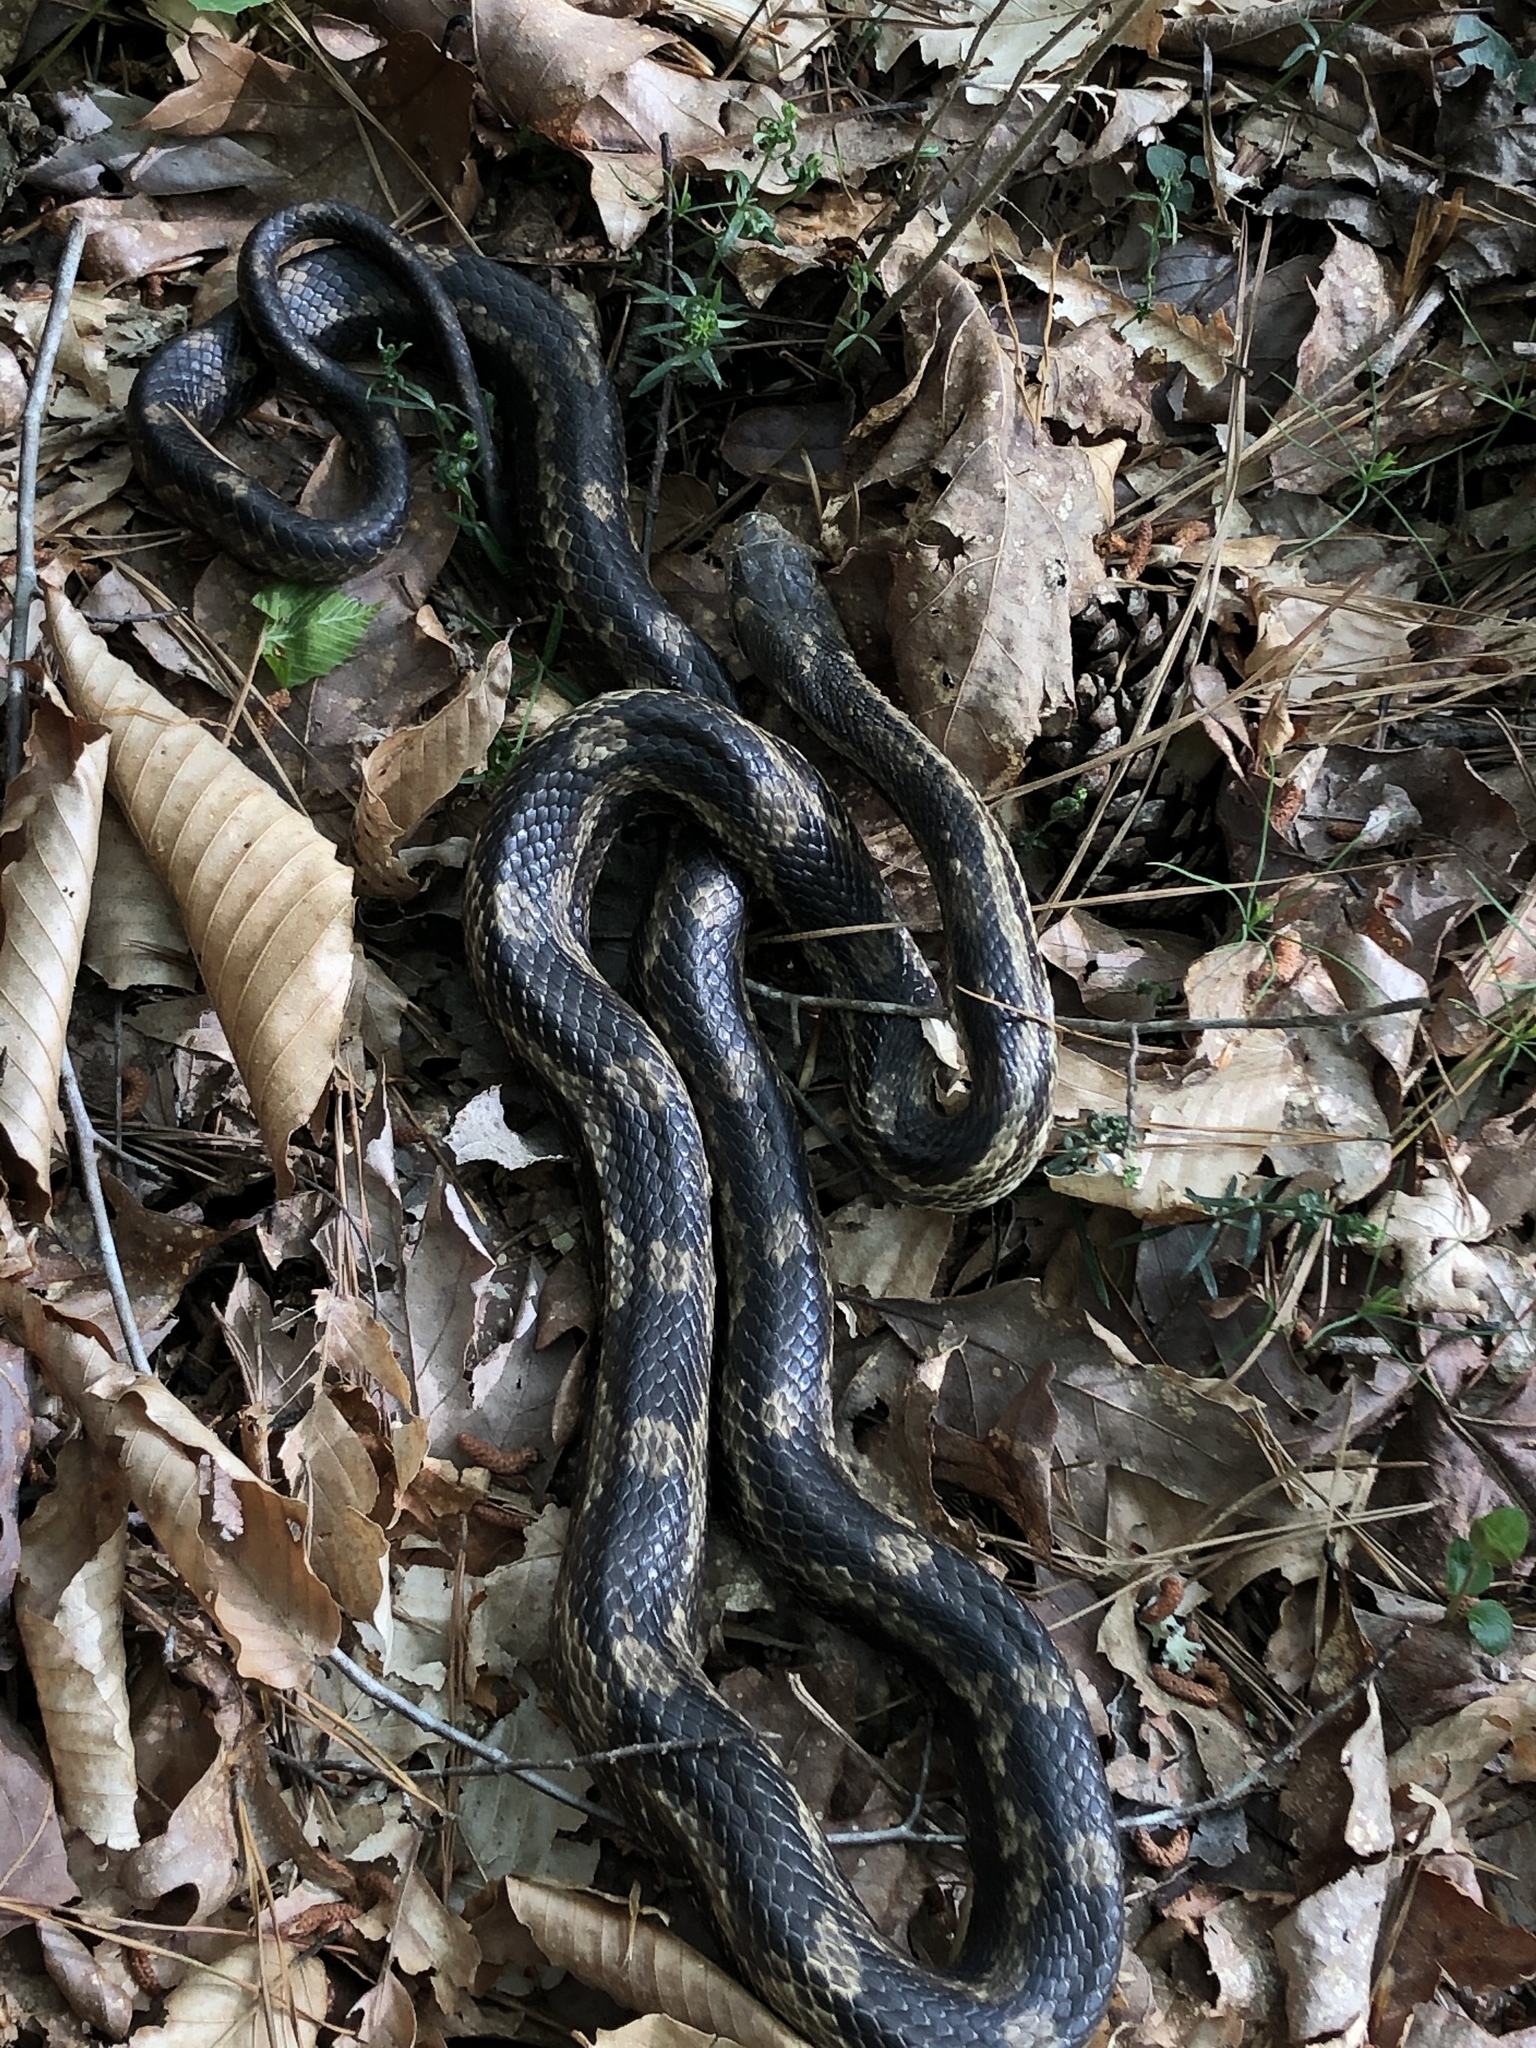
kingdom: Animalia
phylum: Chordata
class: Squamata
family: Colubridae
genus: Pantherophis
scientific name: Pantherophis spiloides
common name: Gray rat snake
